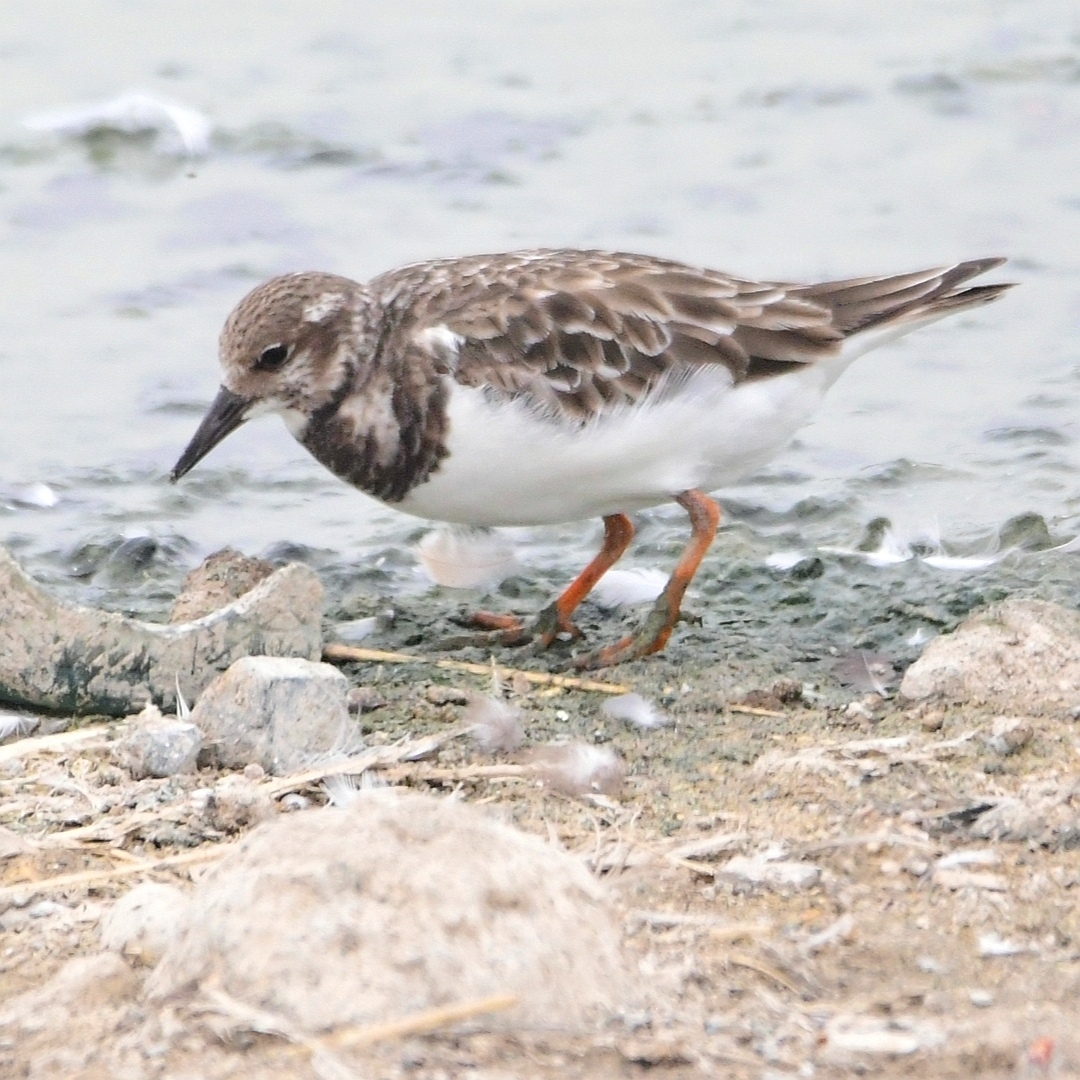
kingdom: Animalia
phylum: Chordata
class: Aves
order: Charadriiformes
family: Scolopacidae
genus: Arenaria
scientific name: Arenaria interpres
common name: Ruddy turnstone
